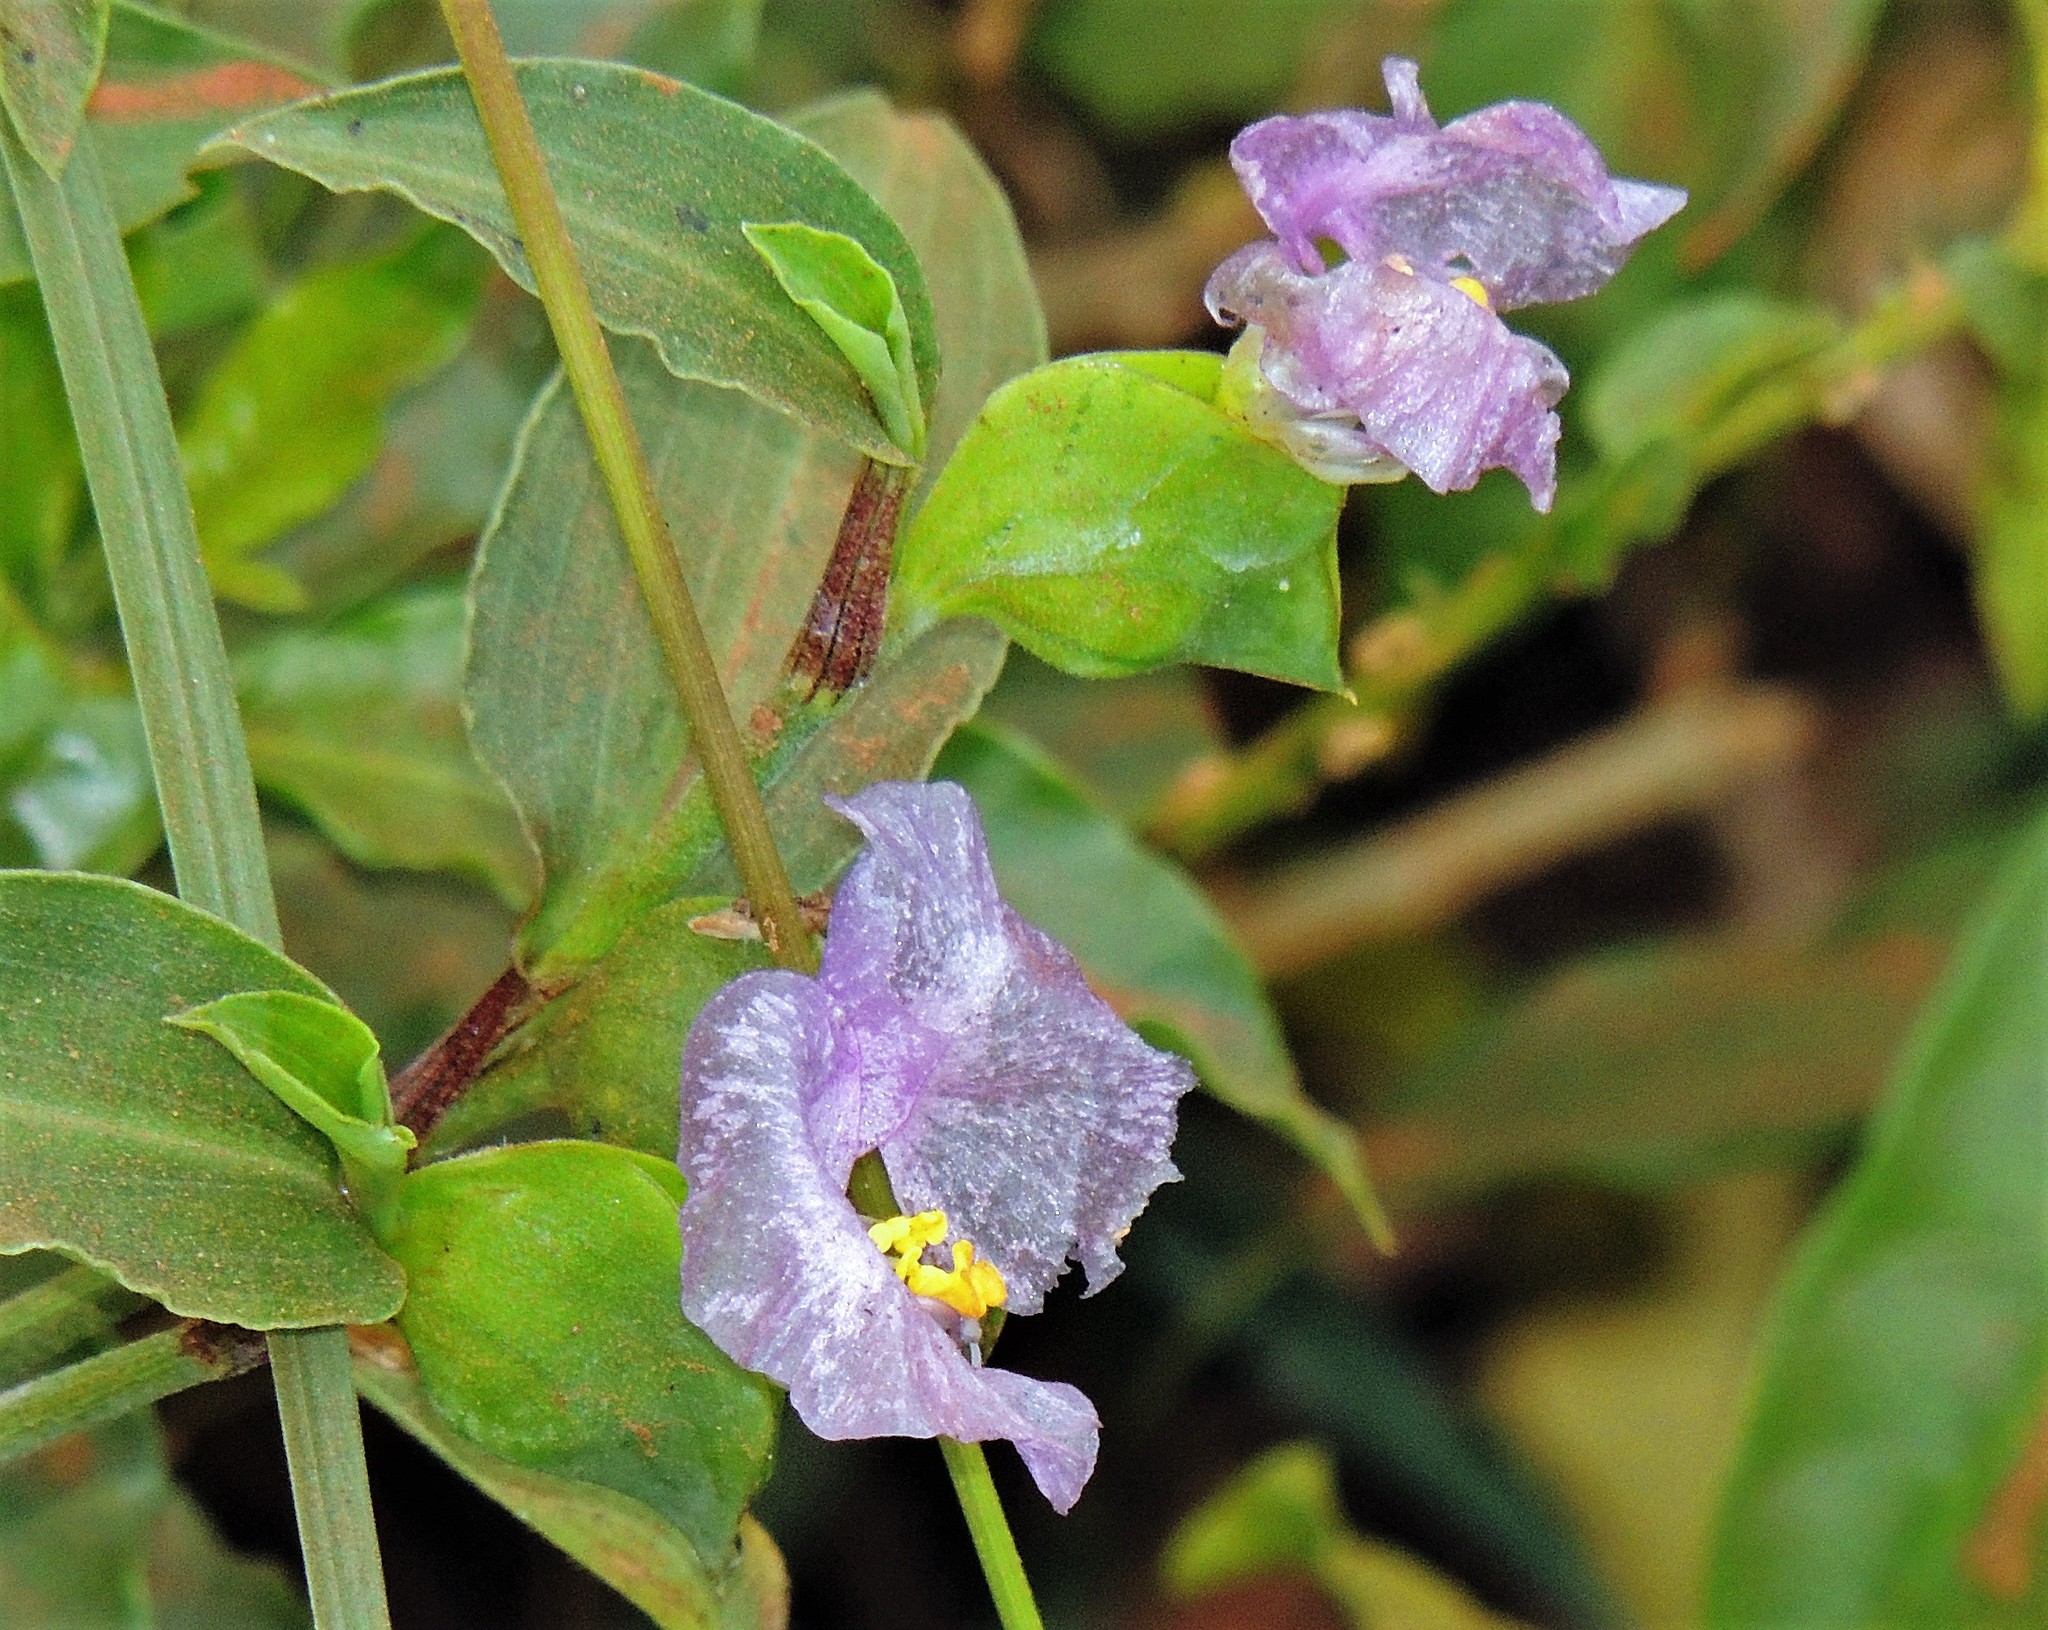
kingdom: Plantae
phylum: Tracheophyta
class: Liliopsida
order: Commelinales
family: Commelinaceae
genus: Commelina
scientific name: Commelina erecta
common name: Blousel blommetjie
